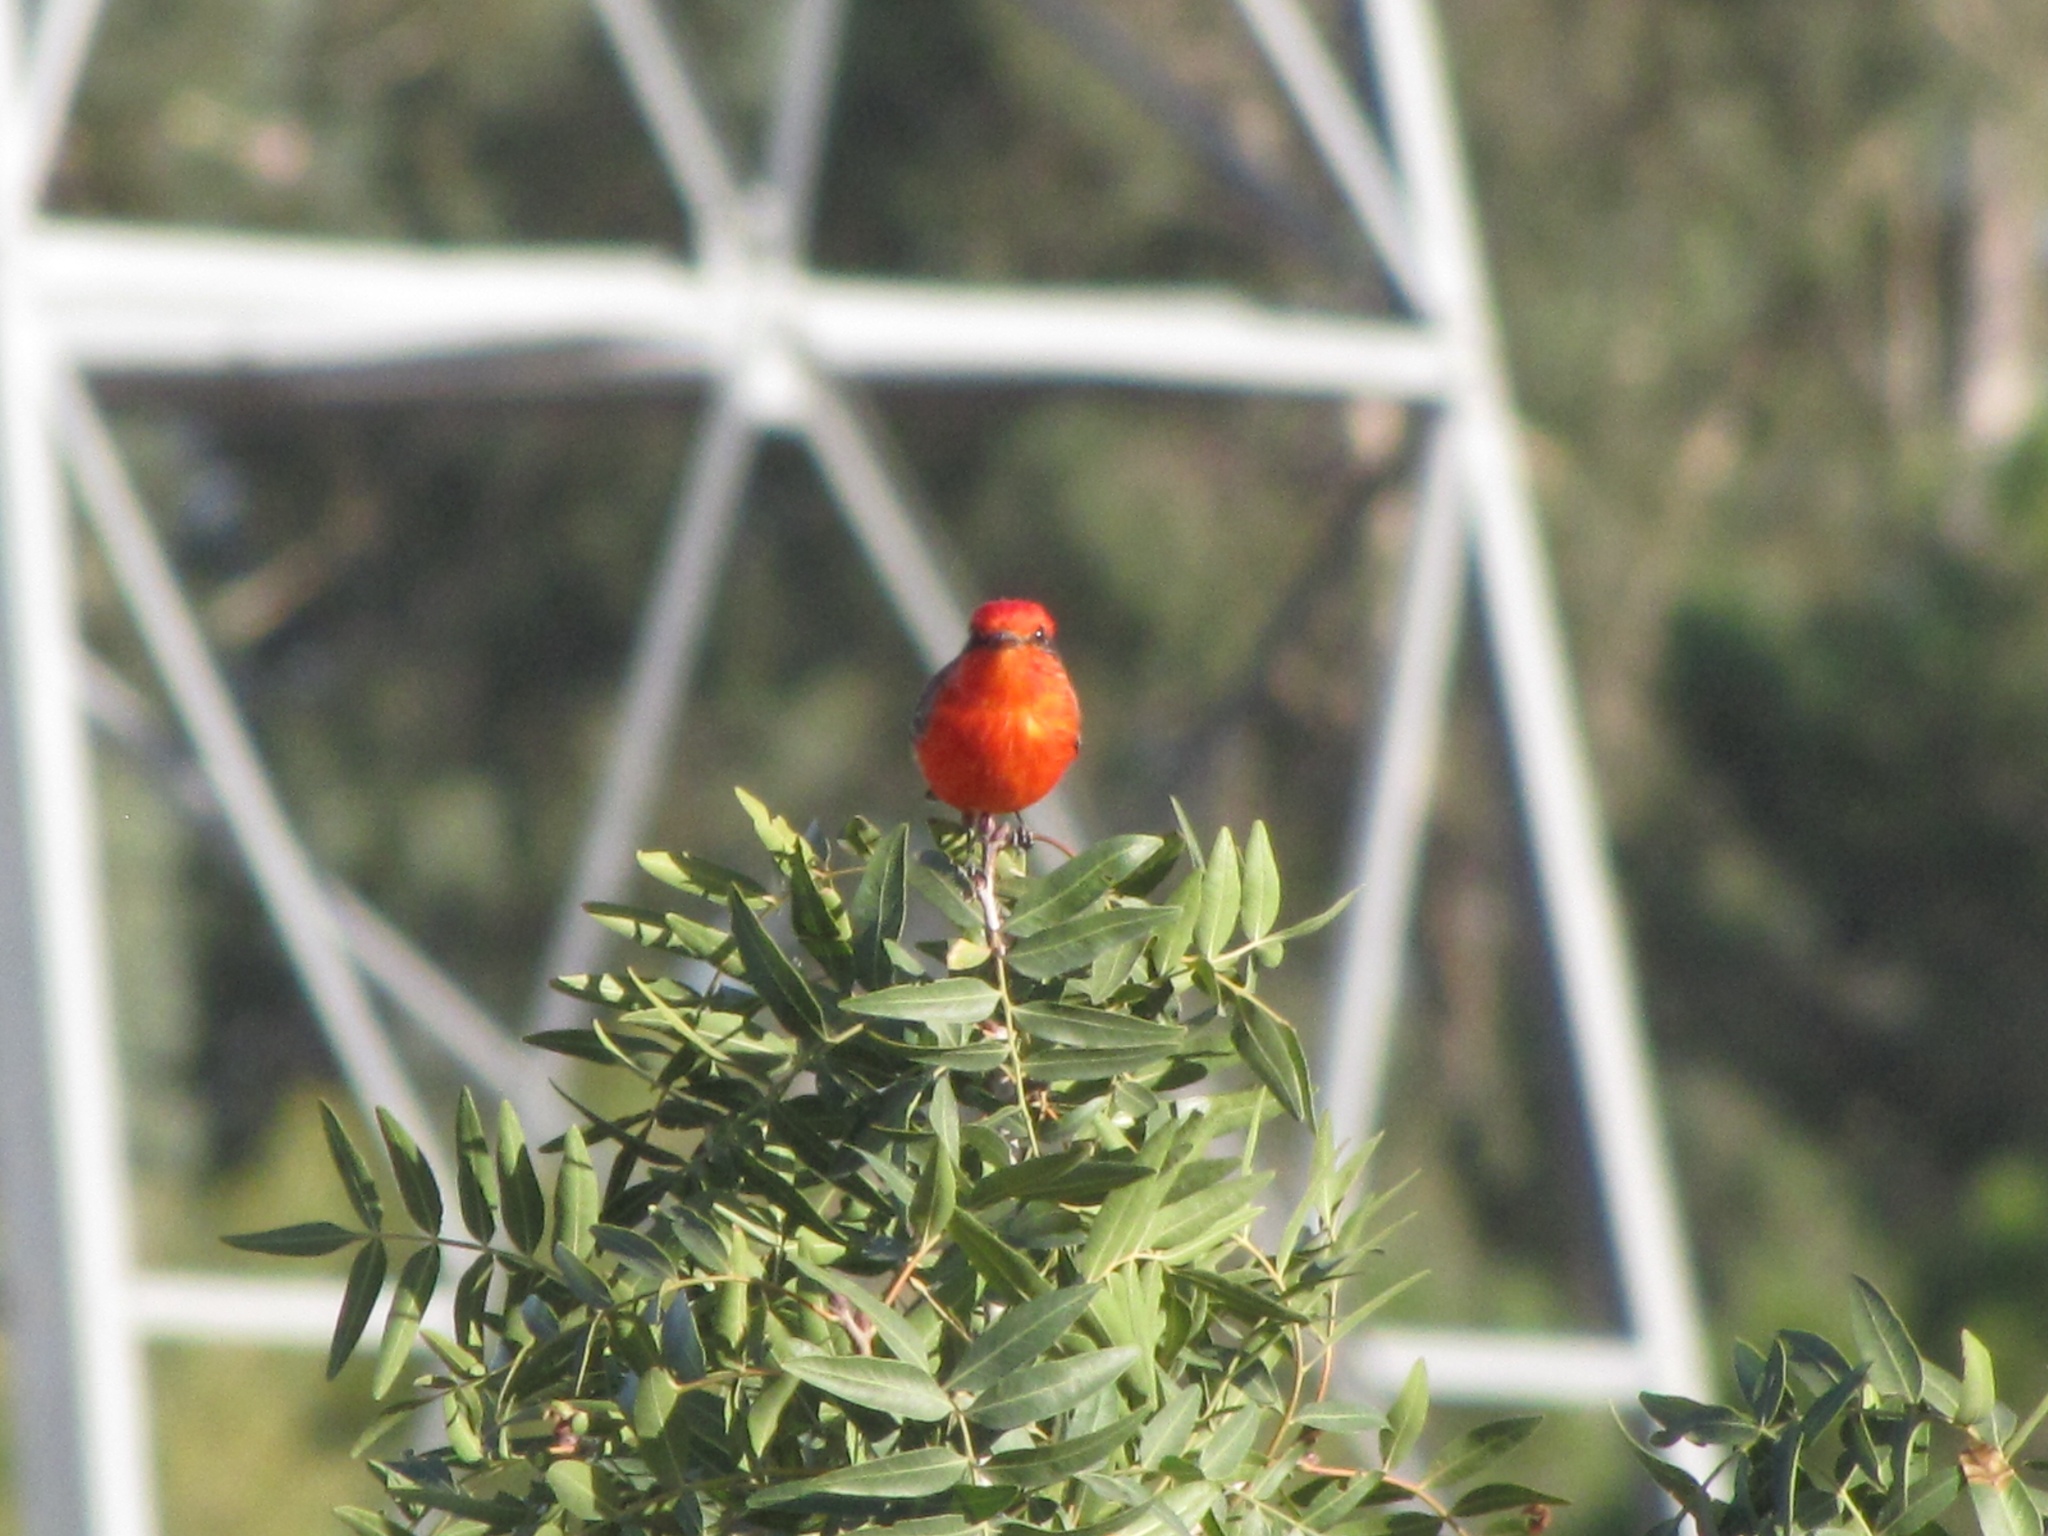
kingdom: Animalia
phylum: Chordata
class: Aves
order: Passeriformes
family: Tyrannidae
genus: Pyrocephalus
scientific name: Pyrocephalus rubinus
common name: Vermilion flycatcher
